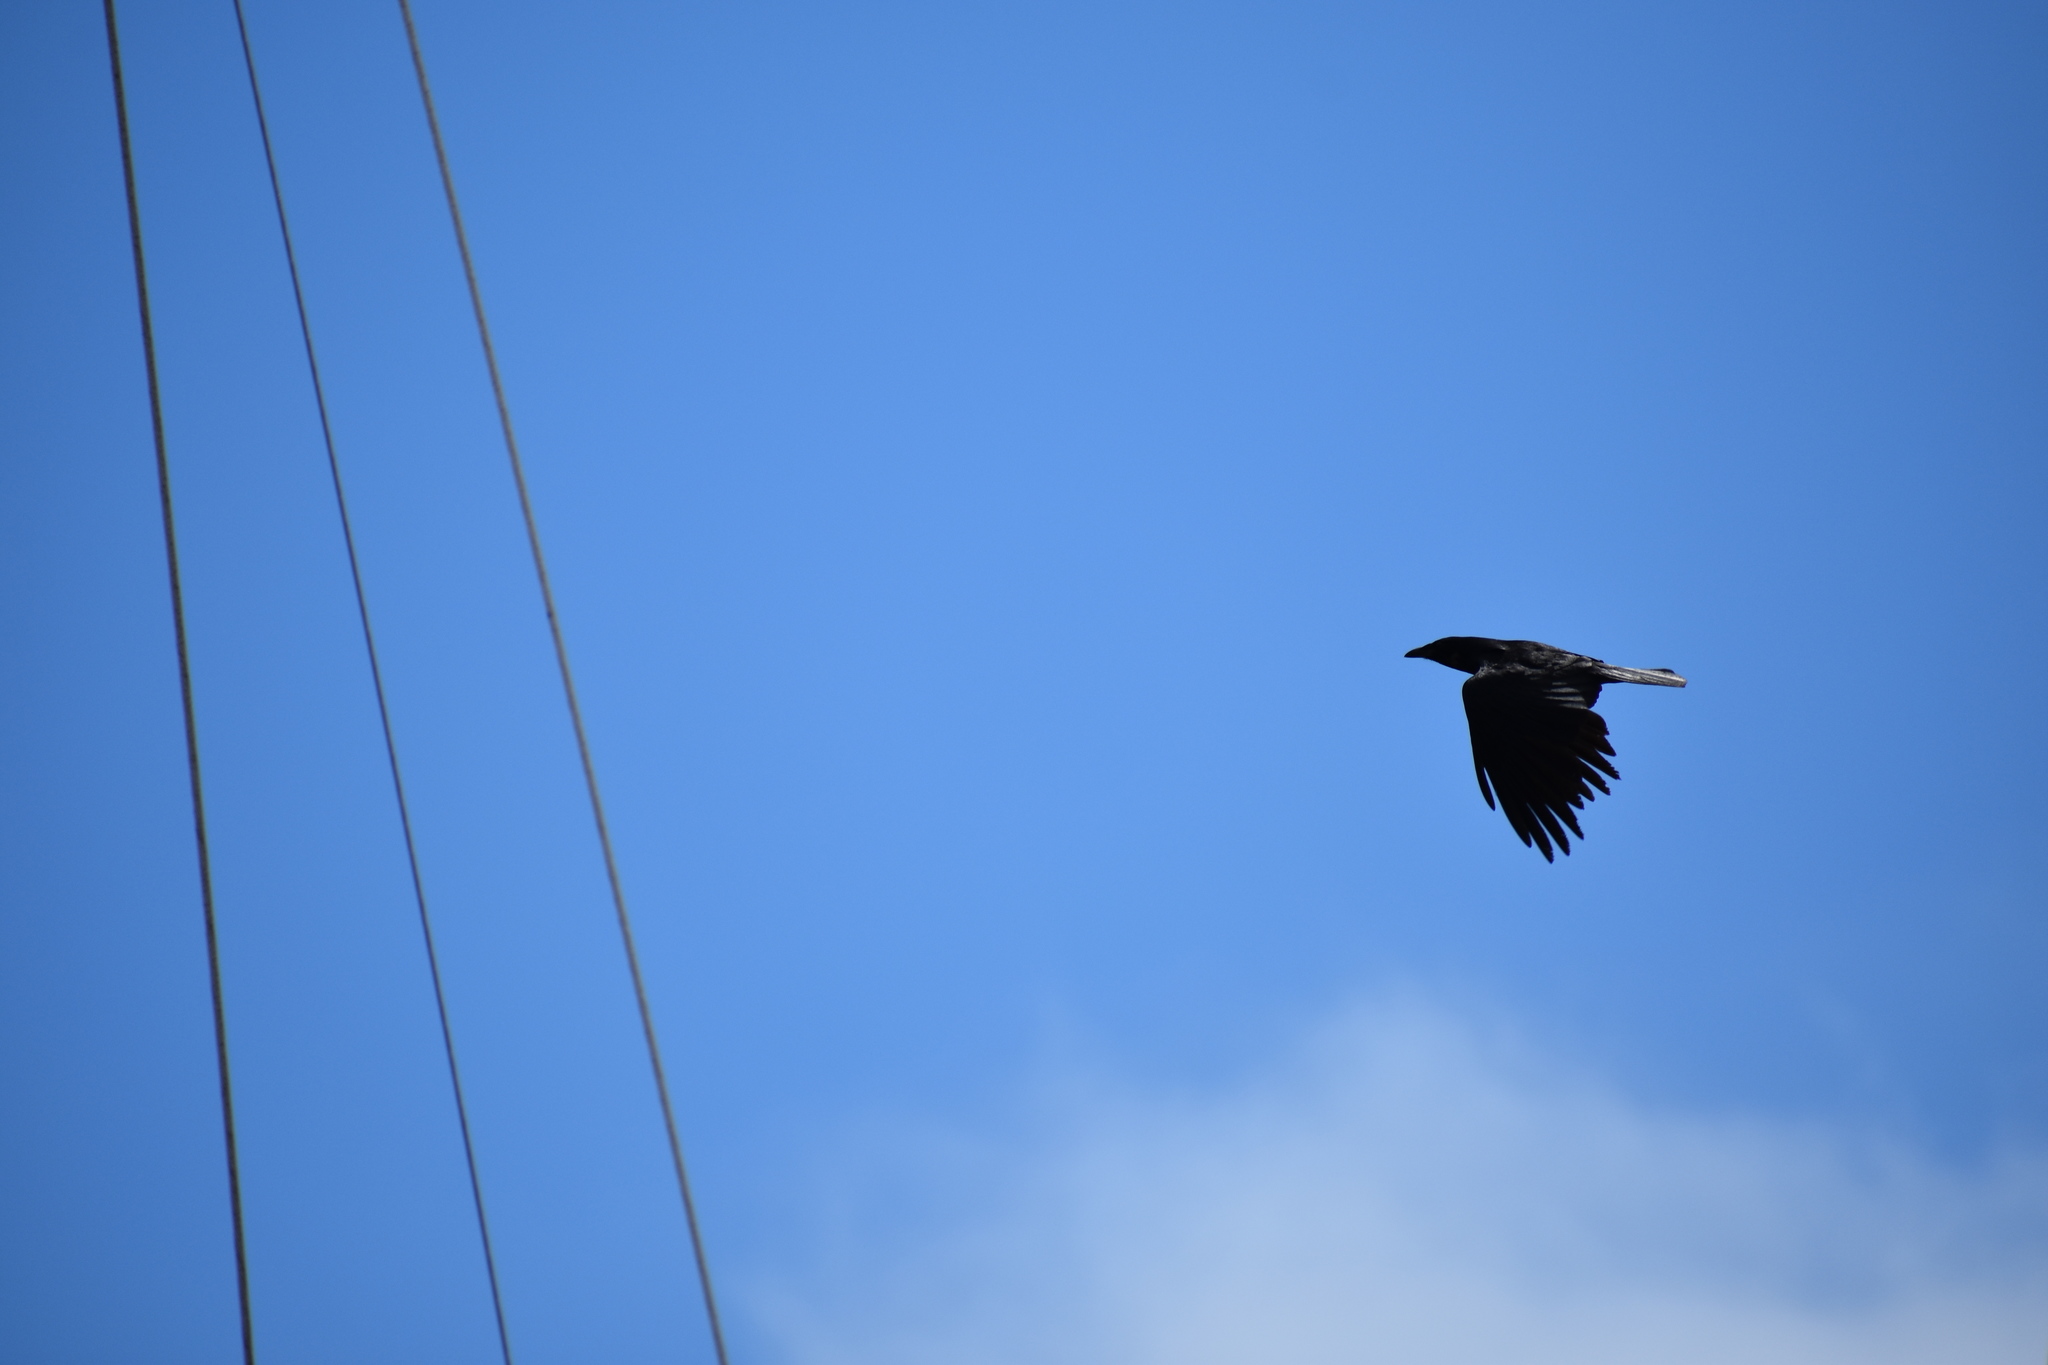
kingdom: Animalia
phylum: Chordata
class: Aves
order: Passeriformes
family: Corvidae
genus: Corvus
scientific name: Corvus ossifragus
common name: Fish crow
